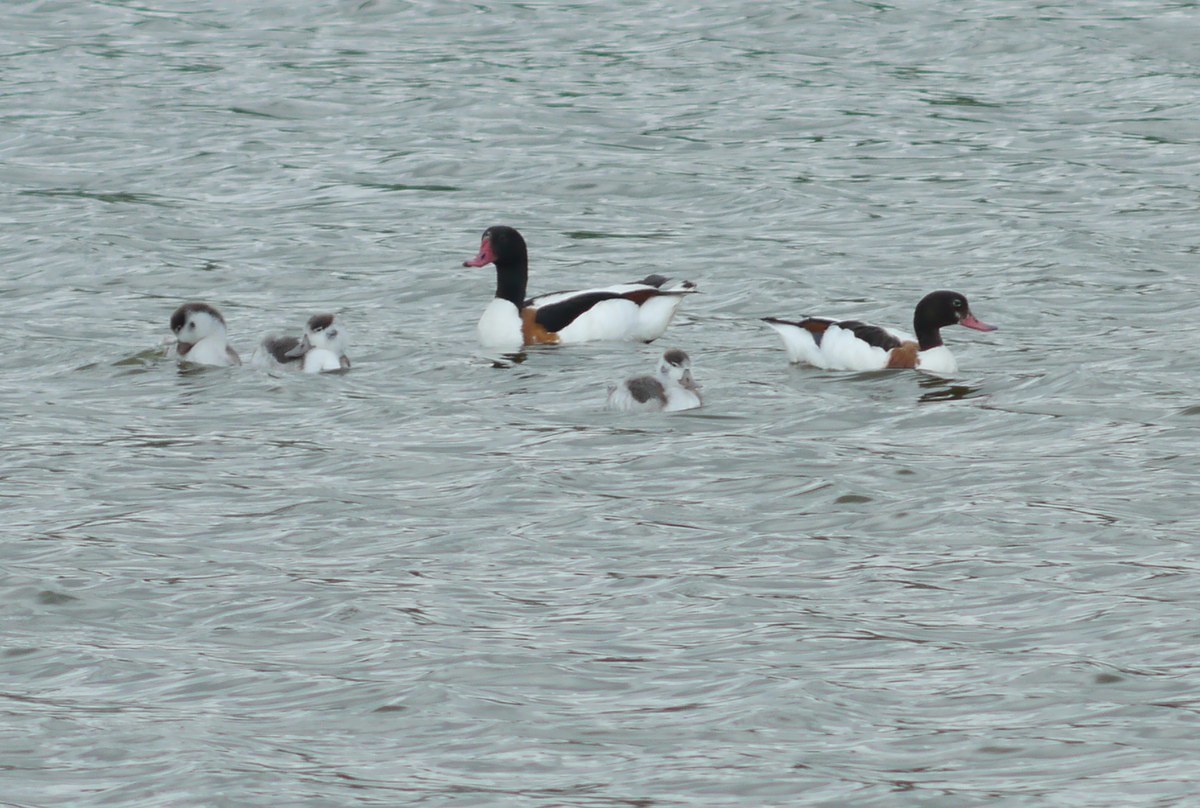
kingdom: Animalia
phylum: Chordata
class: Aves
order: Anseriformes
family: Anatidae
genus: Tadorna
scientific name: Tadorna tadorna
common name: Common shelduck
